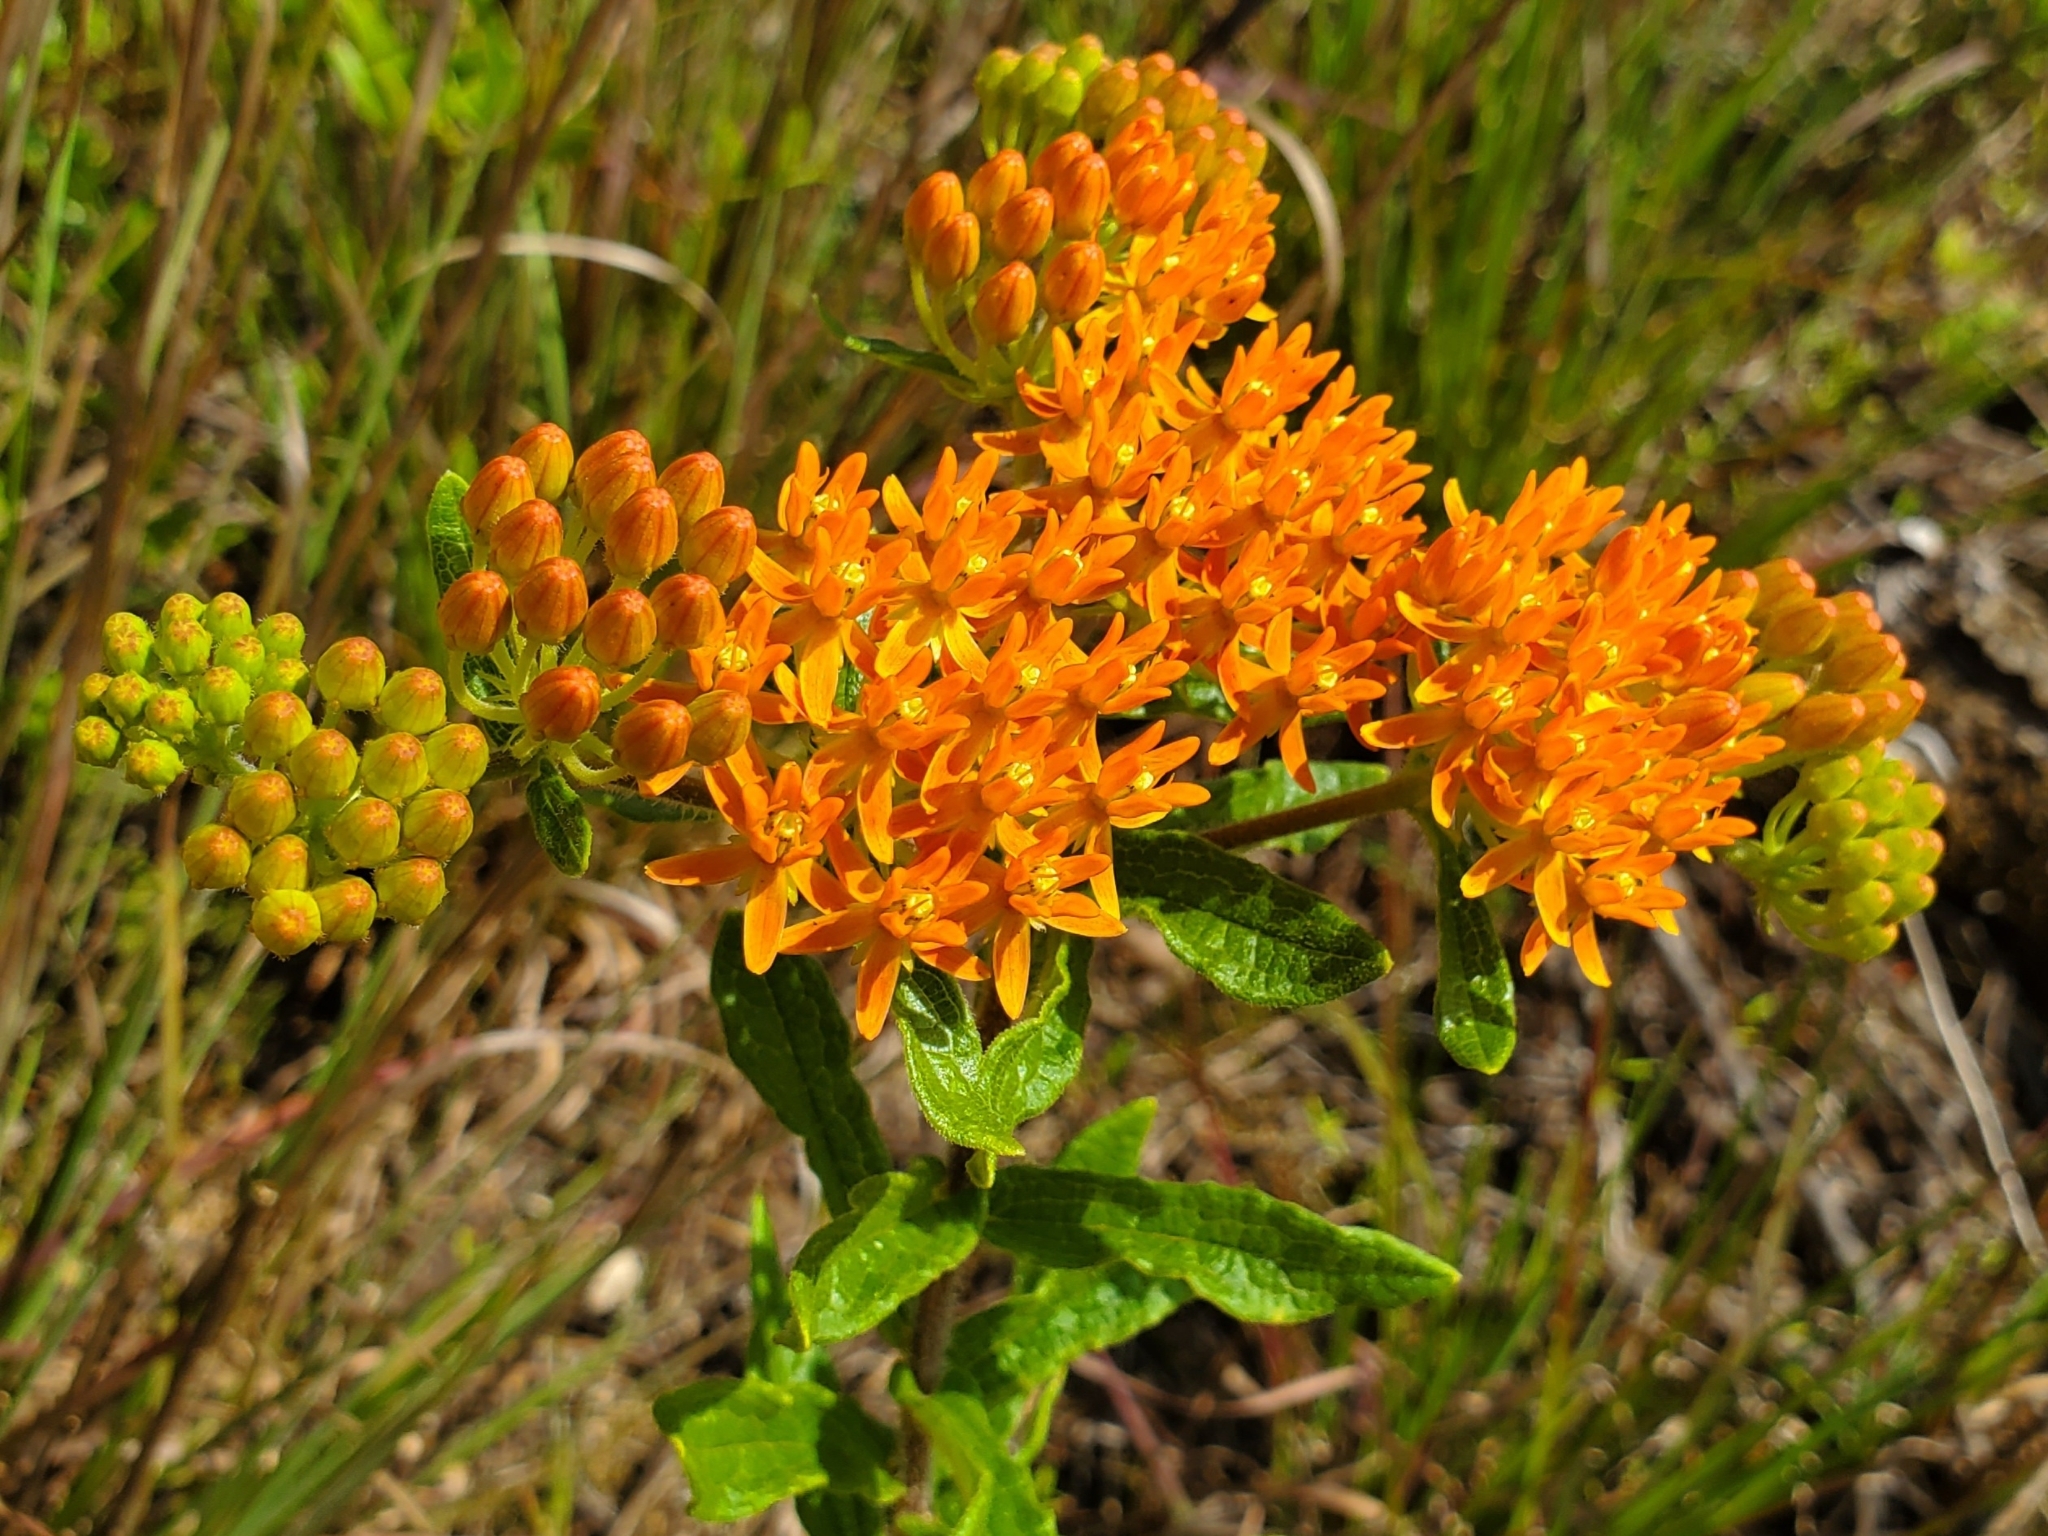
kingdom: Plantae
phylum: Tracheophyta
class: Magnoliopsida
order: Gentianales
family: Apocynaceae
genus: Asclepias
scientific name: Asclepias tuberosa
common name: Butterfly milkweed
